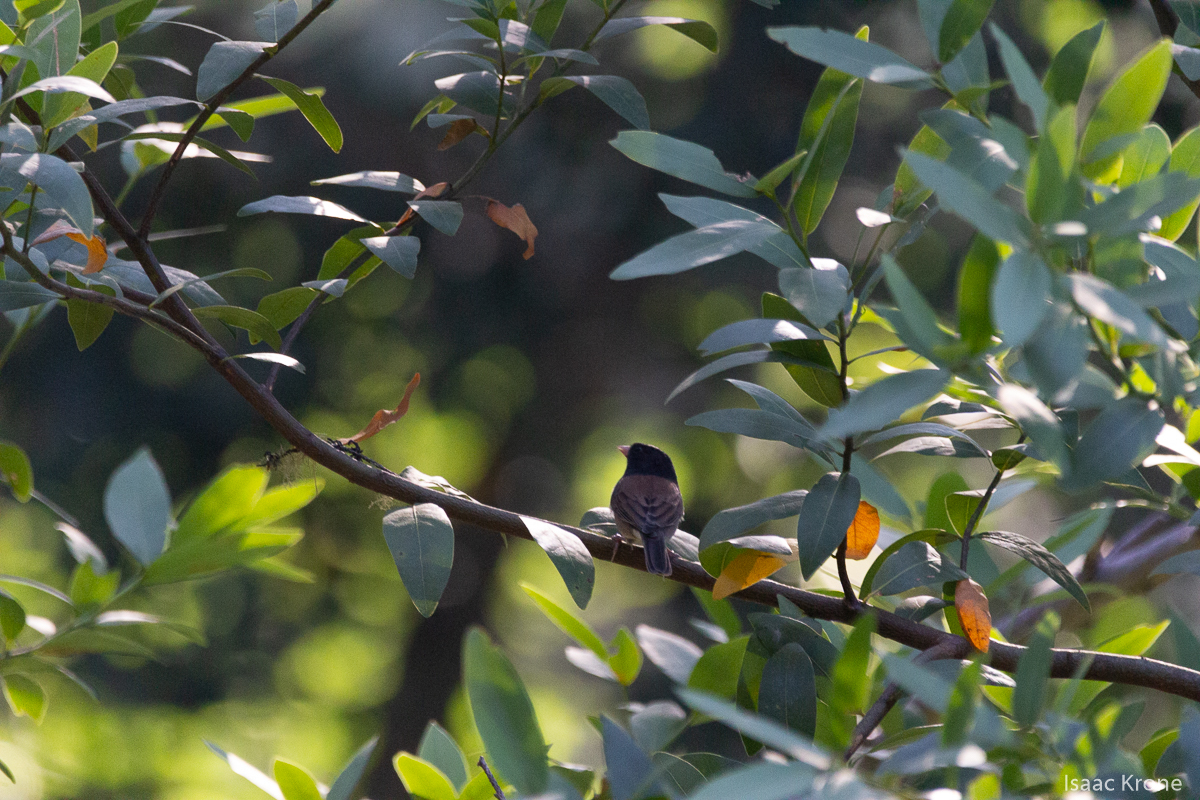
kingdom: Animalia
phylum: Chordata
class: Aves
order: Passeriformes
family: Passerellidae
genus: Junco
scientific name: Junco hyemalis
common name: Dark-eyed junco
